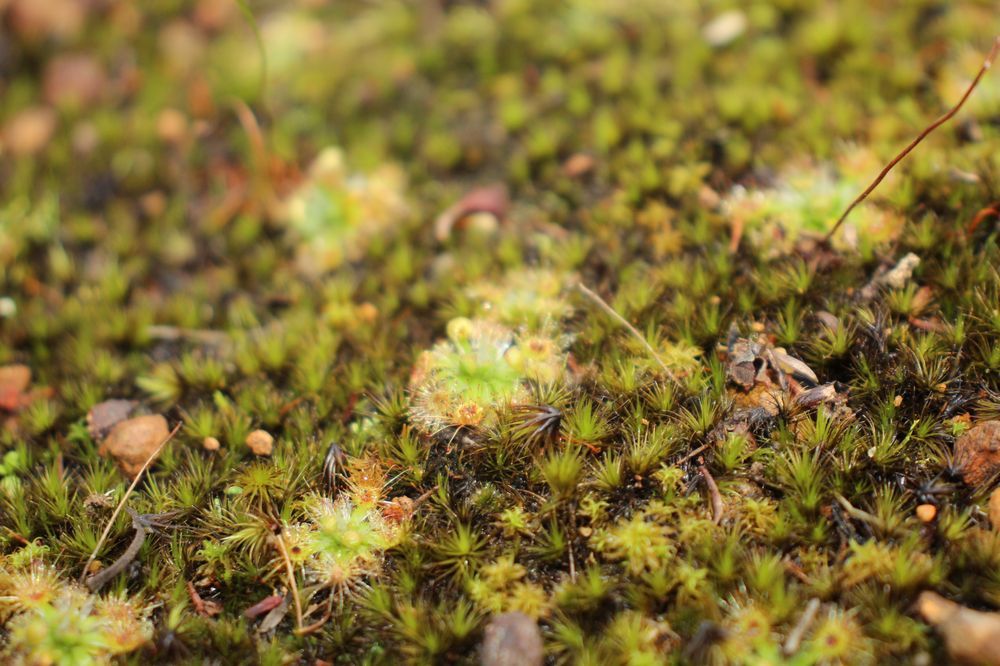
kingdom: Plantae
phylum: Tracheophyta
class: Magnoliopsida
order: Caryophyllales
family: Droseraceae
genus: Drosera
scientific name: Drosera platystigma
